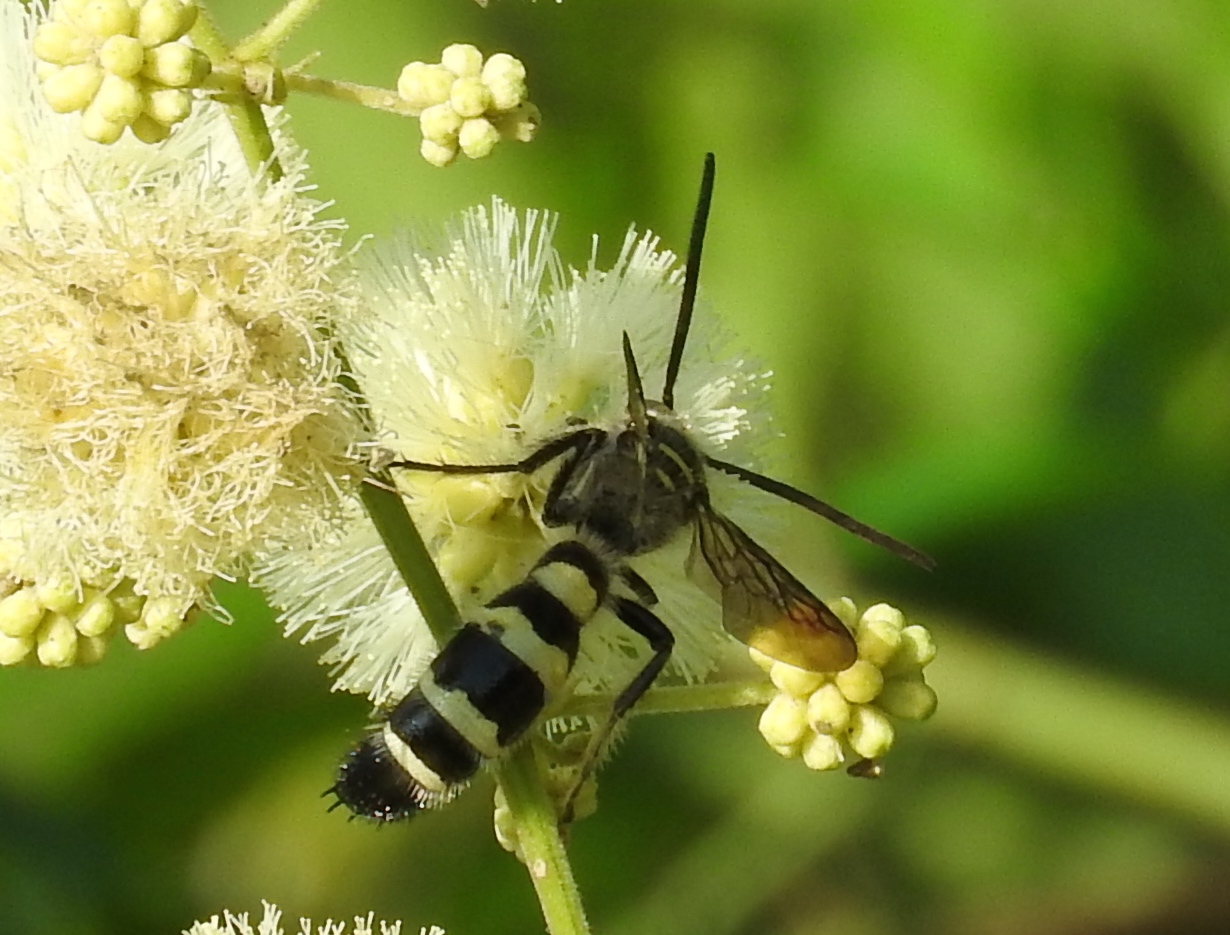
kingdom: Animalia
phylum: Arthropoda
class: Insecta
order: Hymenoptera
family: Scoliidae
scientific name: Scoliidae
